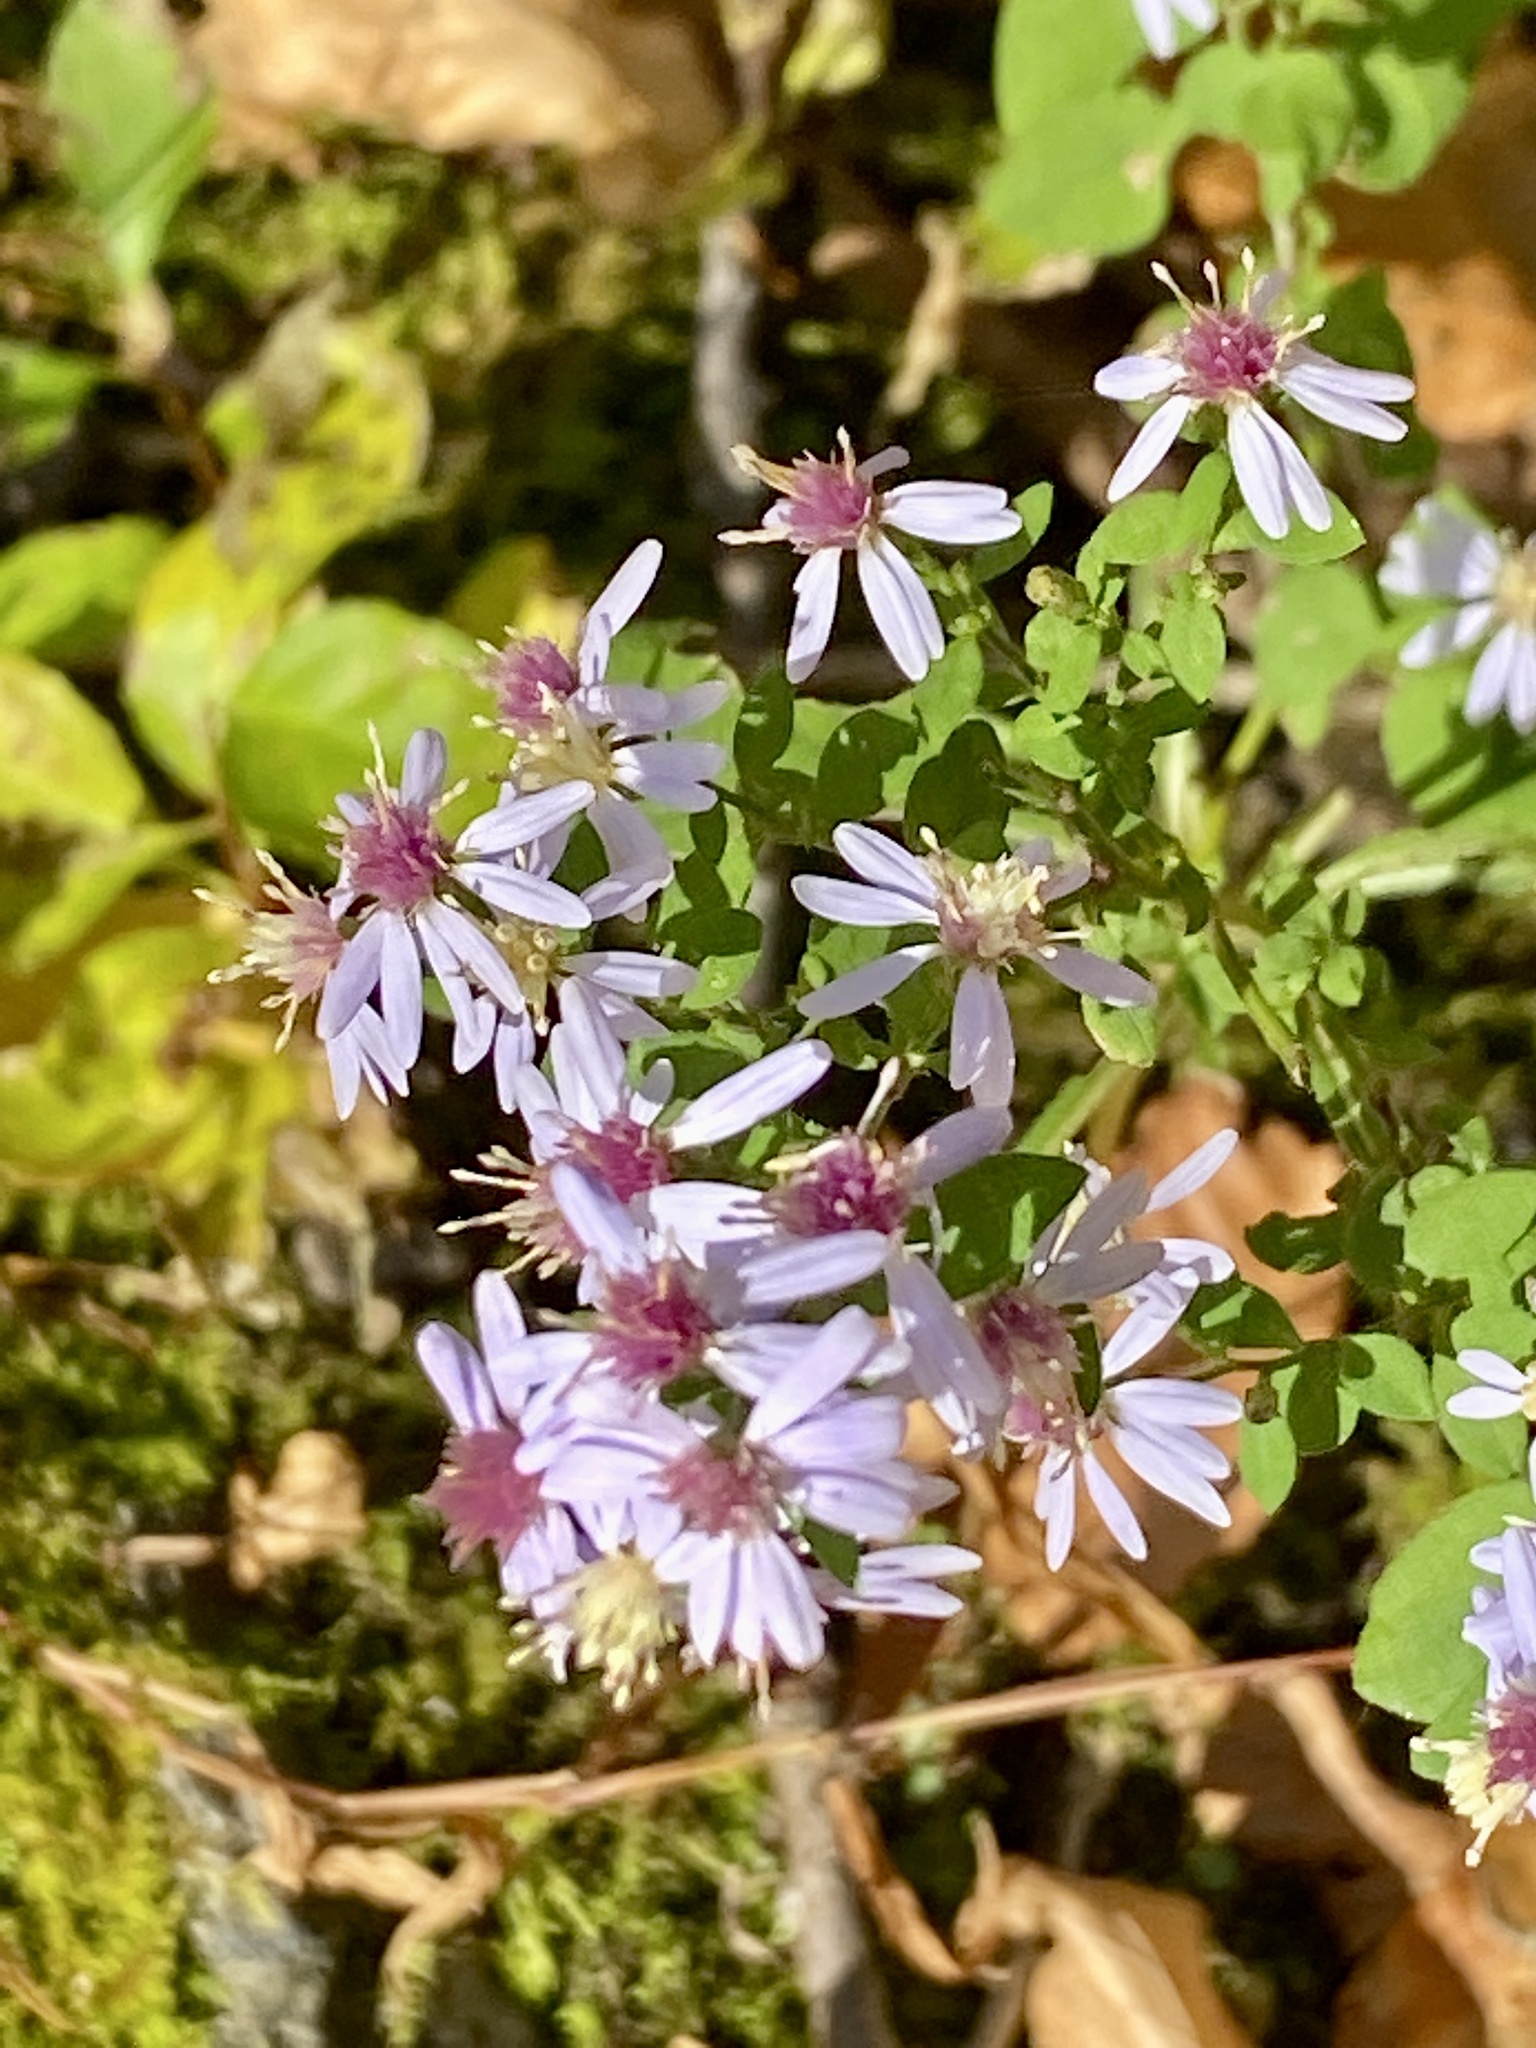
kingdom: Plantae
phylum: Tracheophyta
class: Magnoliopsida
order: Asterales
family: Asteraceae
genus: Symphyotrichum
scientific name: Symphyotrichum cordifolium
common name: Beeweed
